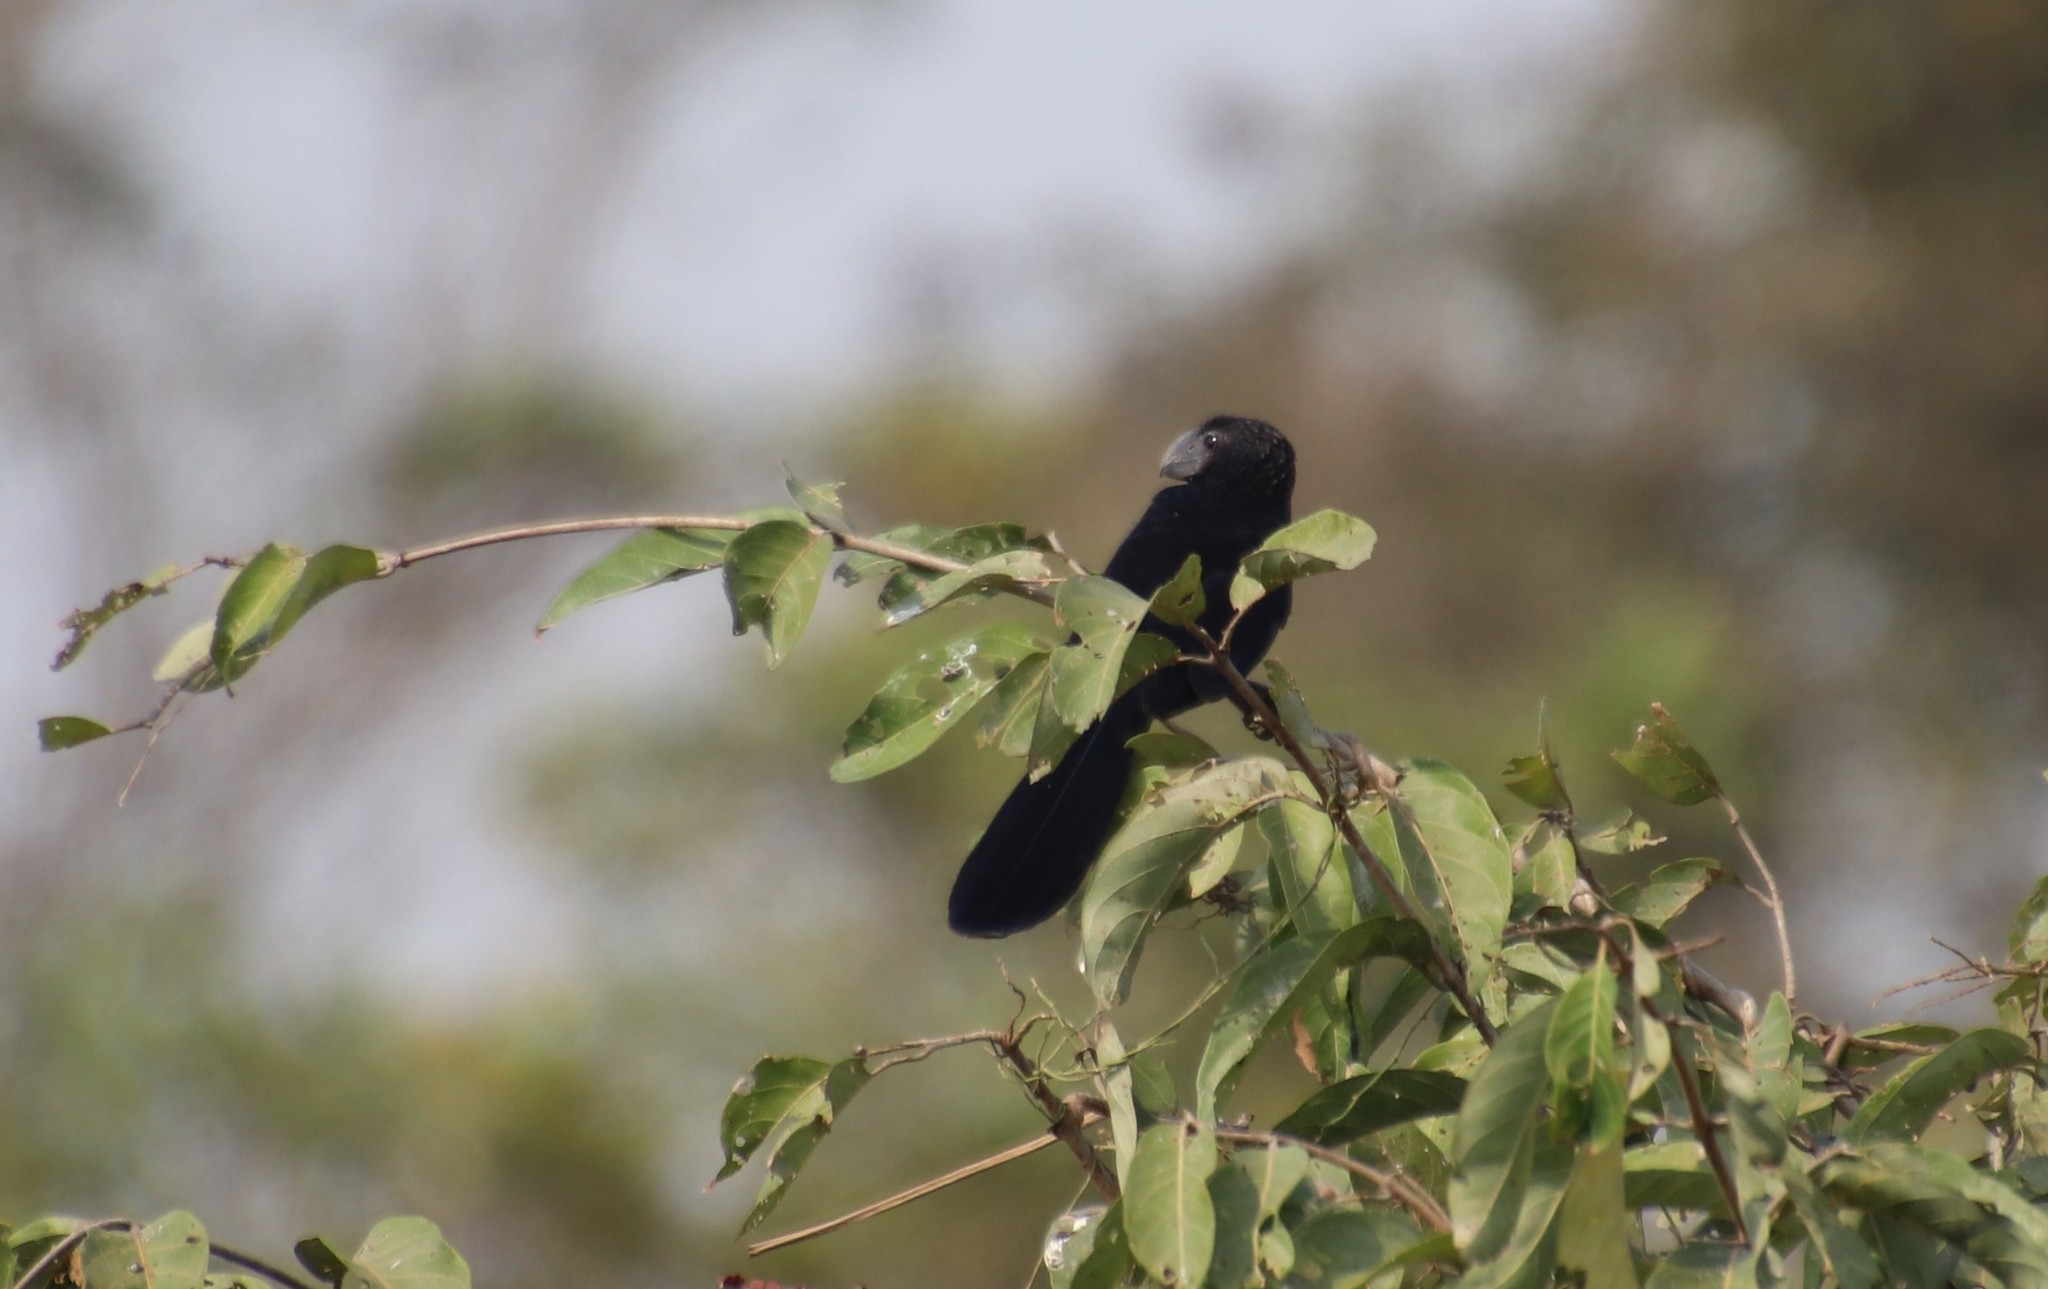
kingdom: Animalia
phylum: Chordata
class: Aves
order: Cuculiformes
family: Cuculidae
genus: Crotophaga
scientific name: Crotophaga ani
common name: Smooth-billed ani
